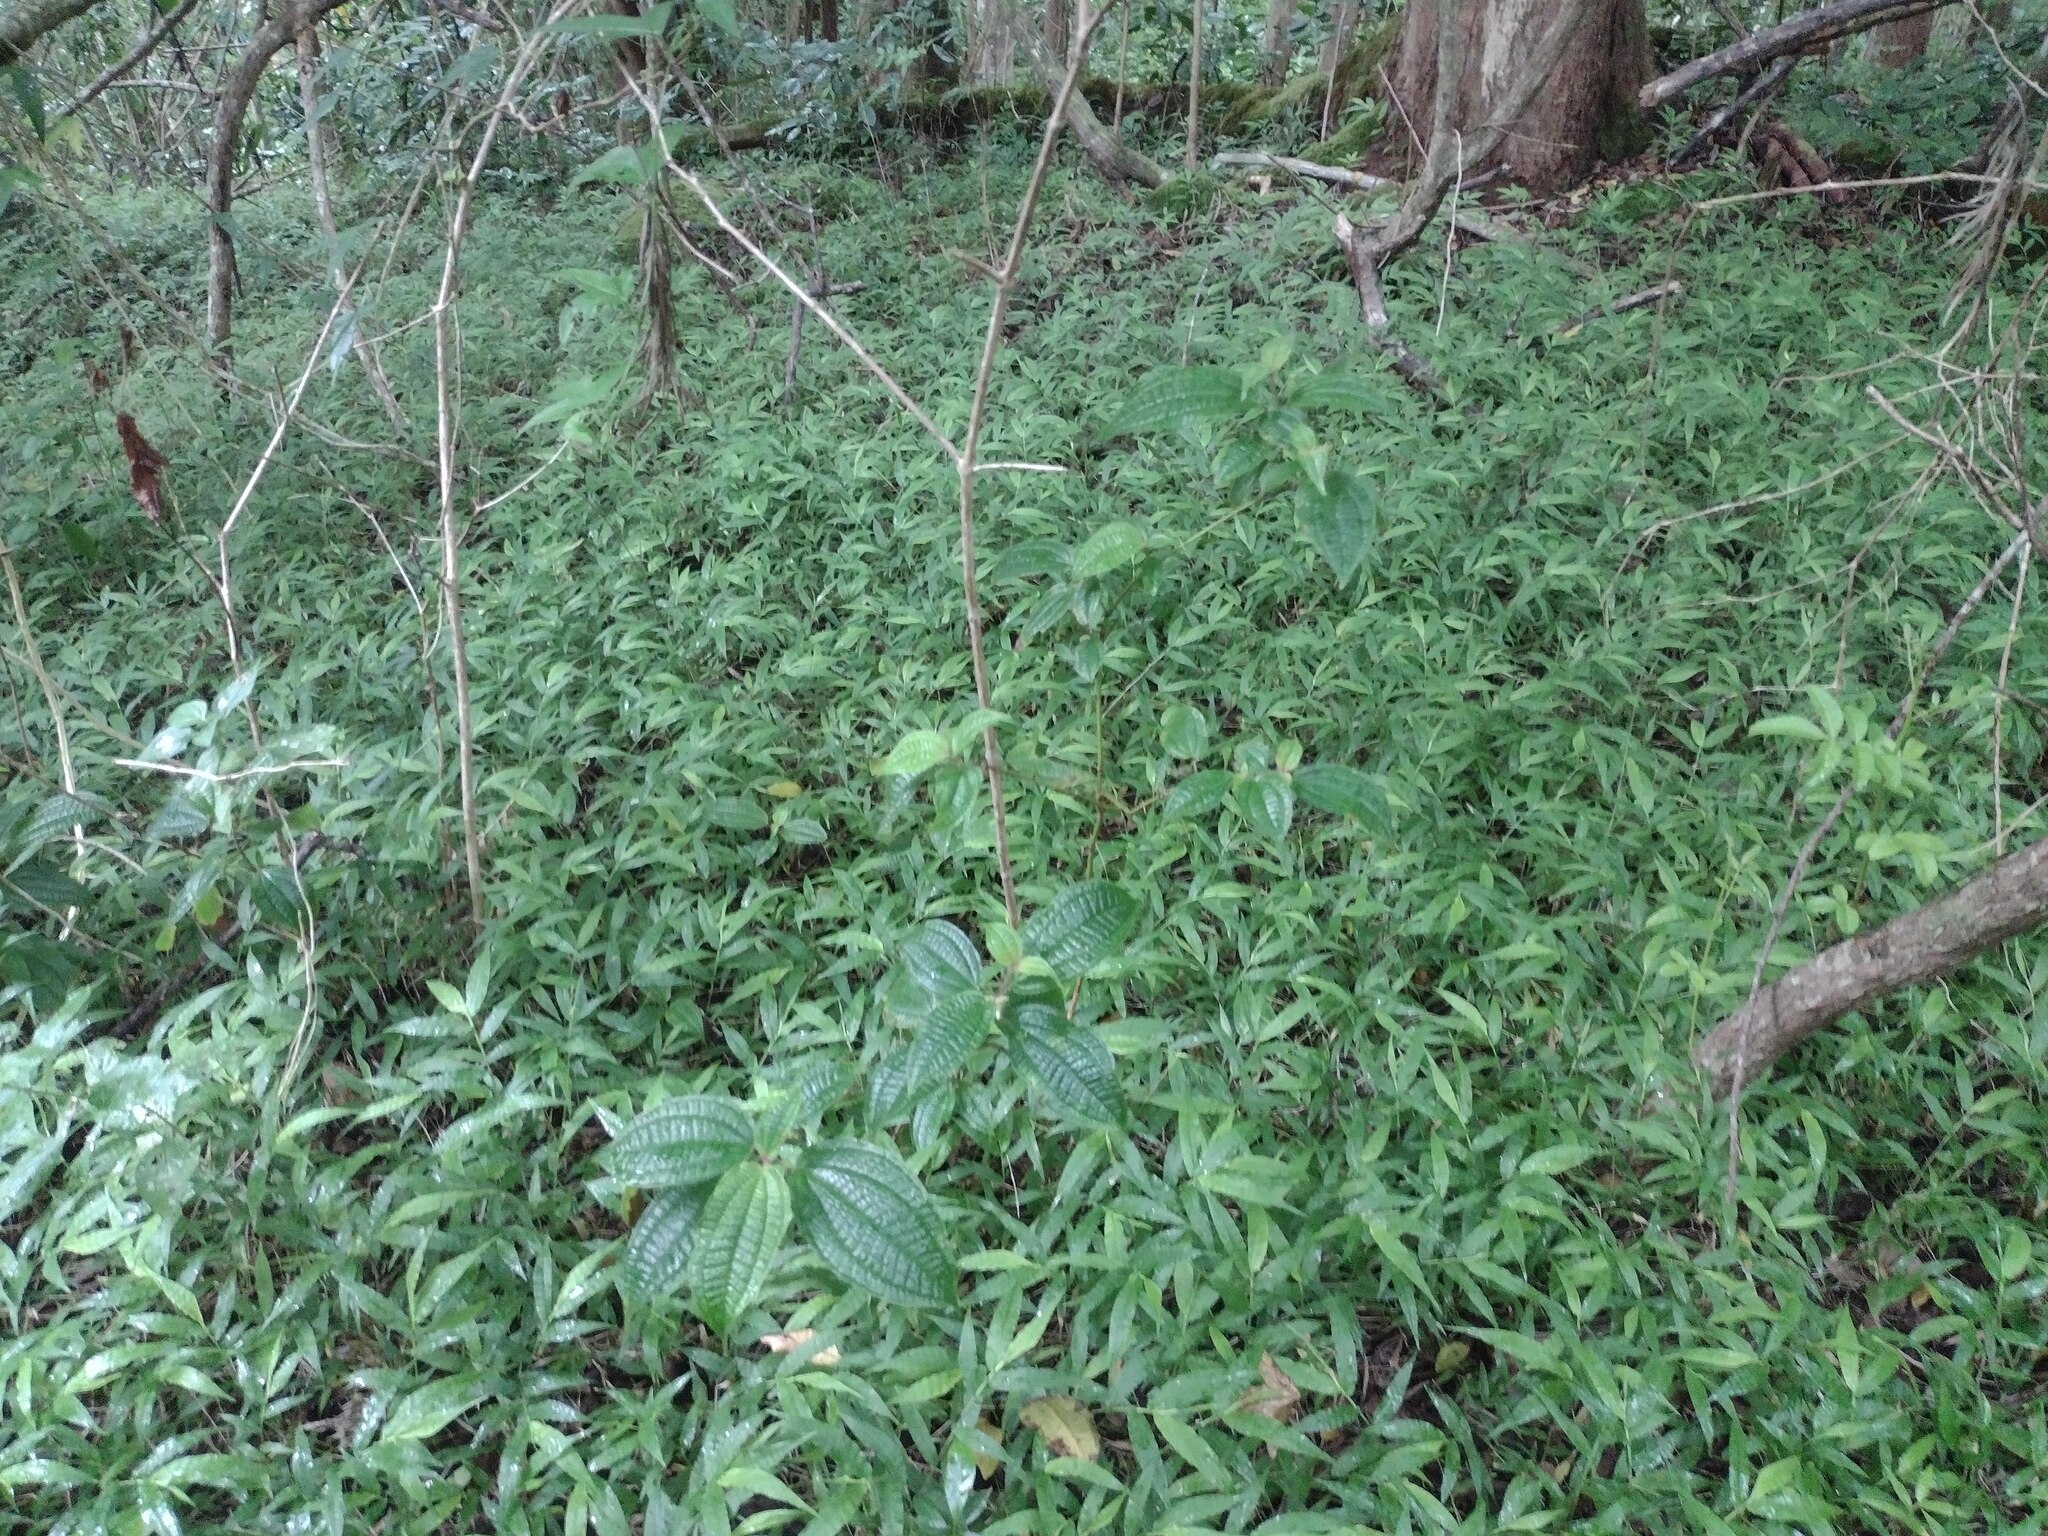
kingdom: Plantae
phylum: Tracheophyta
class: Magnoliopsida
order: Myrtales
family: Melastomataceae
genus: Miconia
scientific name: Miconia crenata
